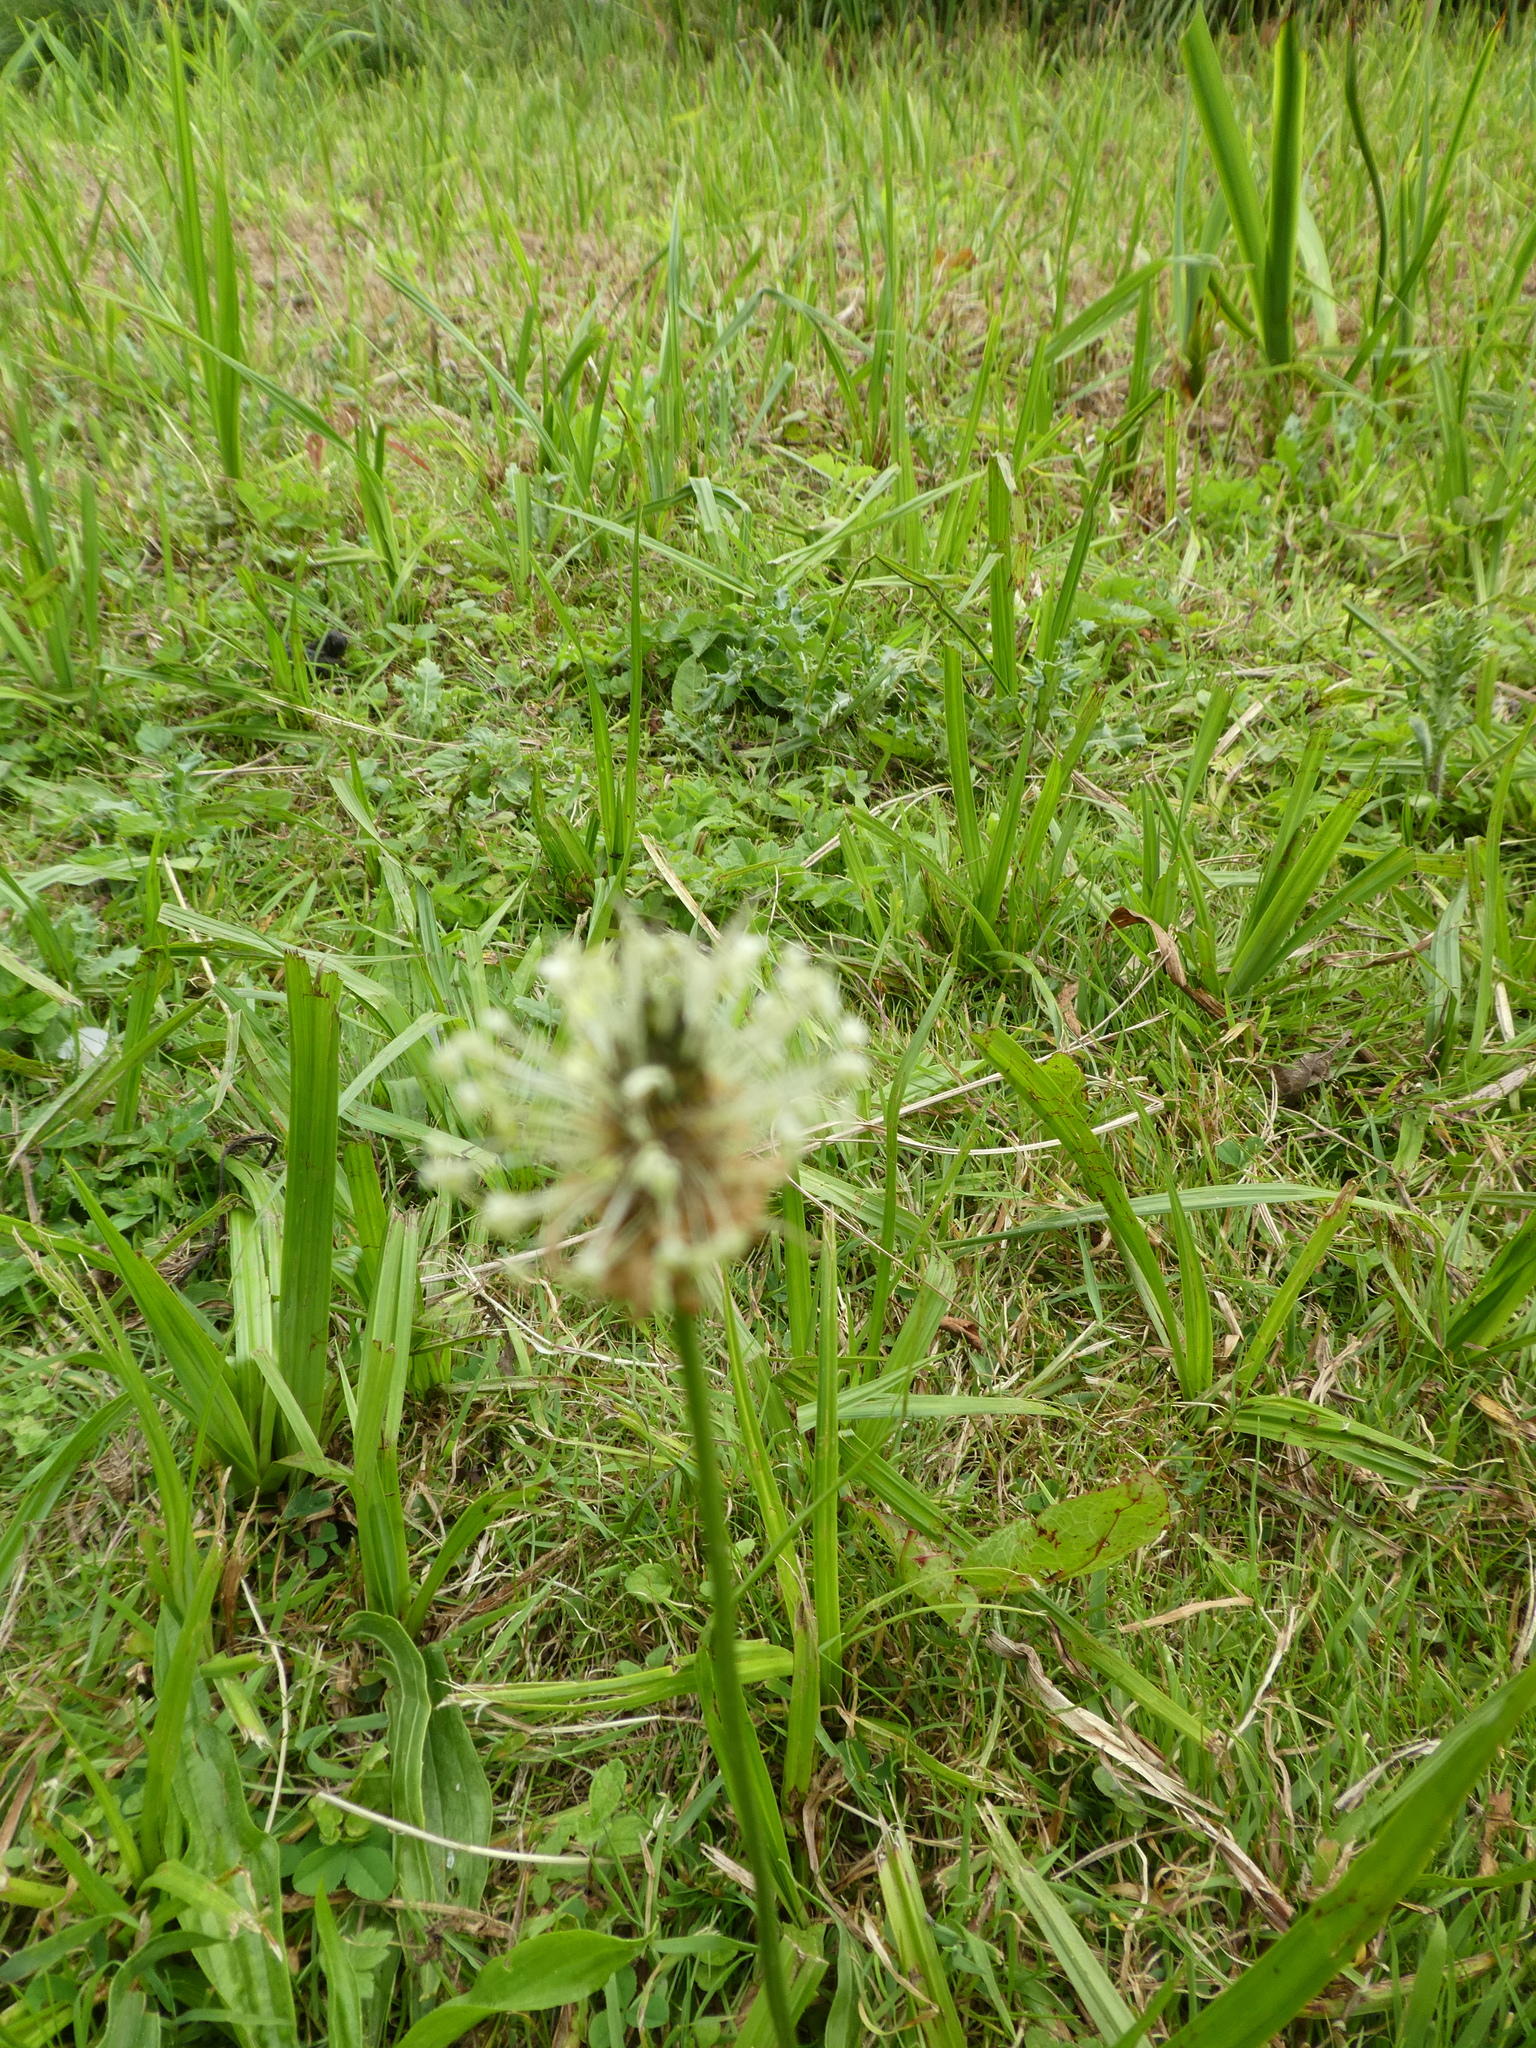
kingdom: Plantae
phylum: Tracheophyta
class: Magnoliopsida
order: Lamiales
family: Plantaginaceae
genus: Plantago
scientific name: Plantago lanceolata
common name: Ribwort plantain
